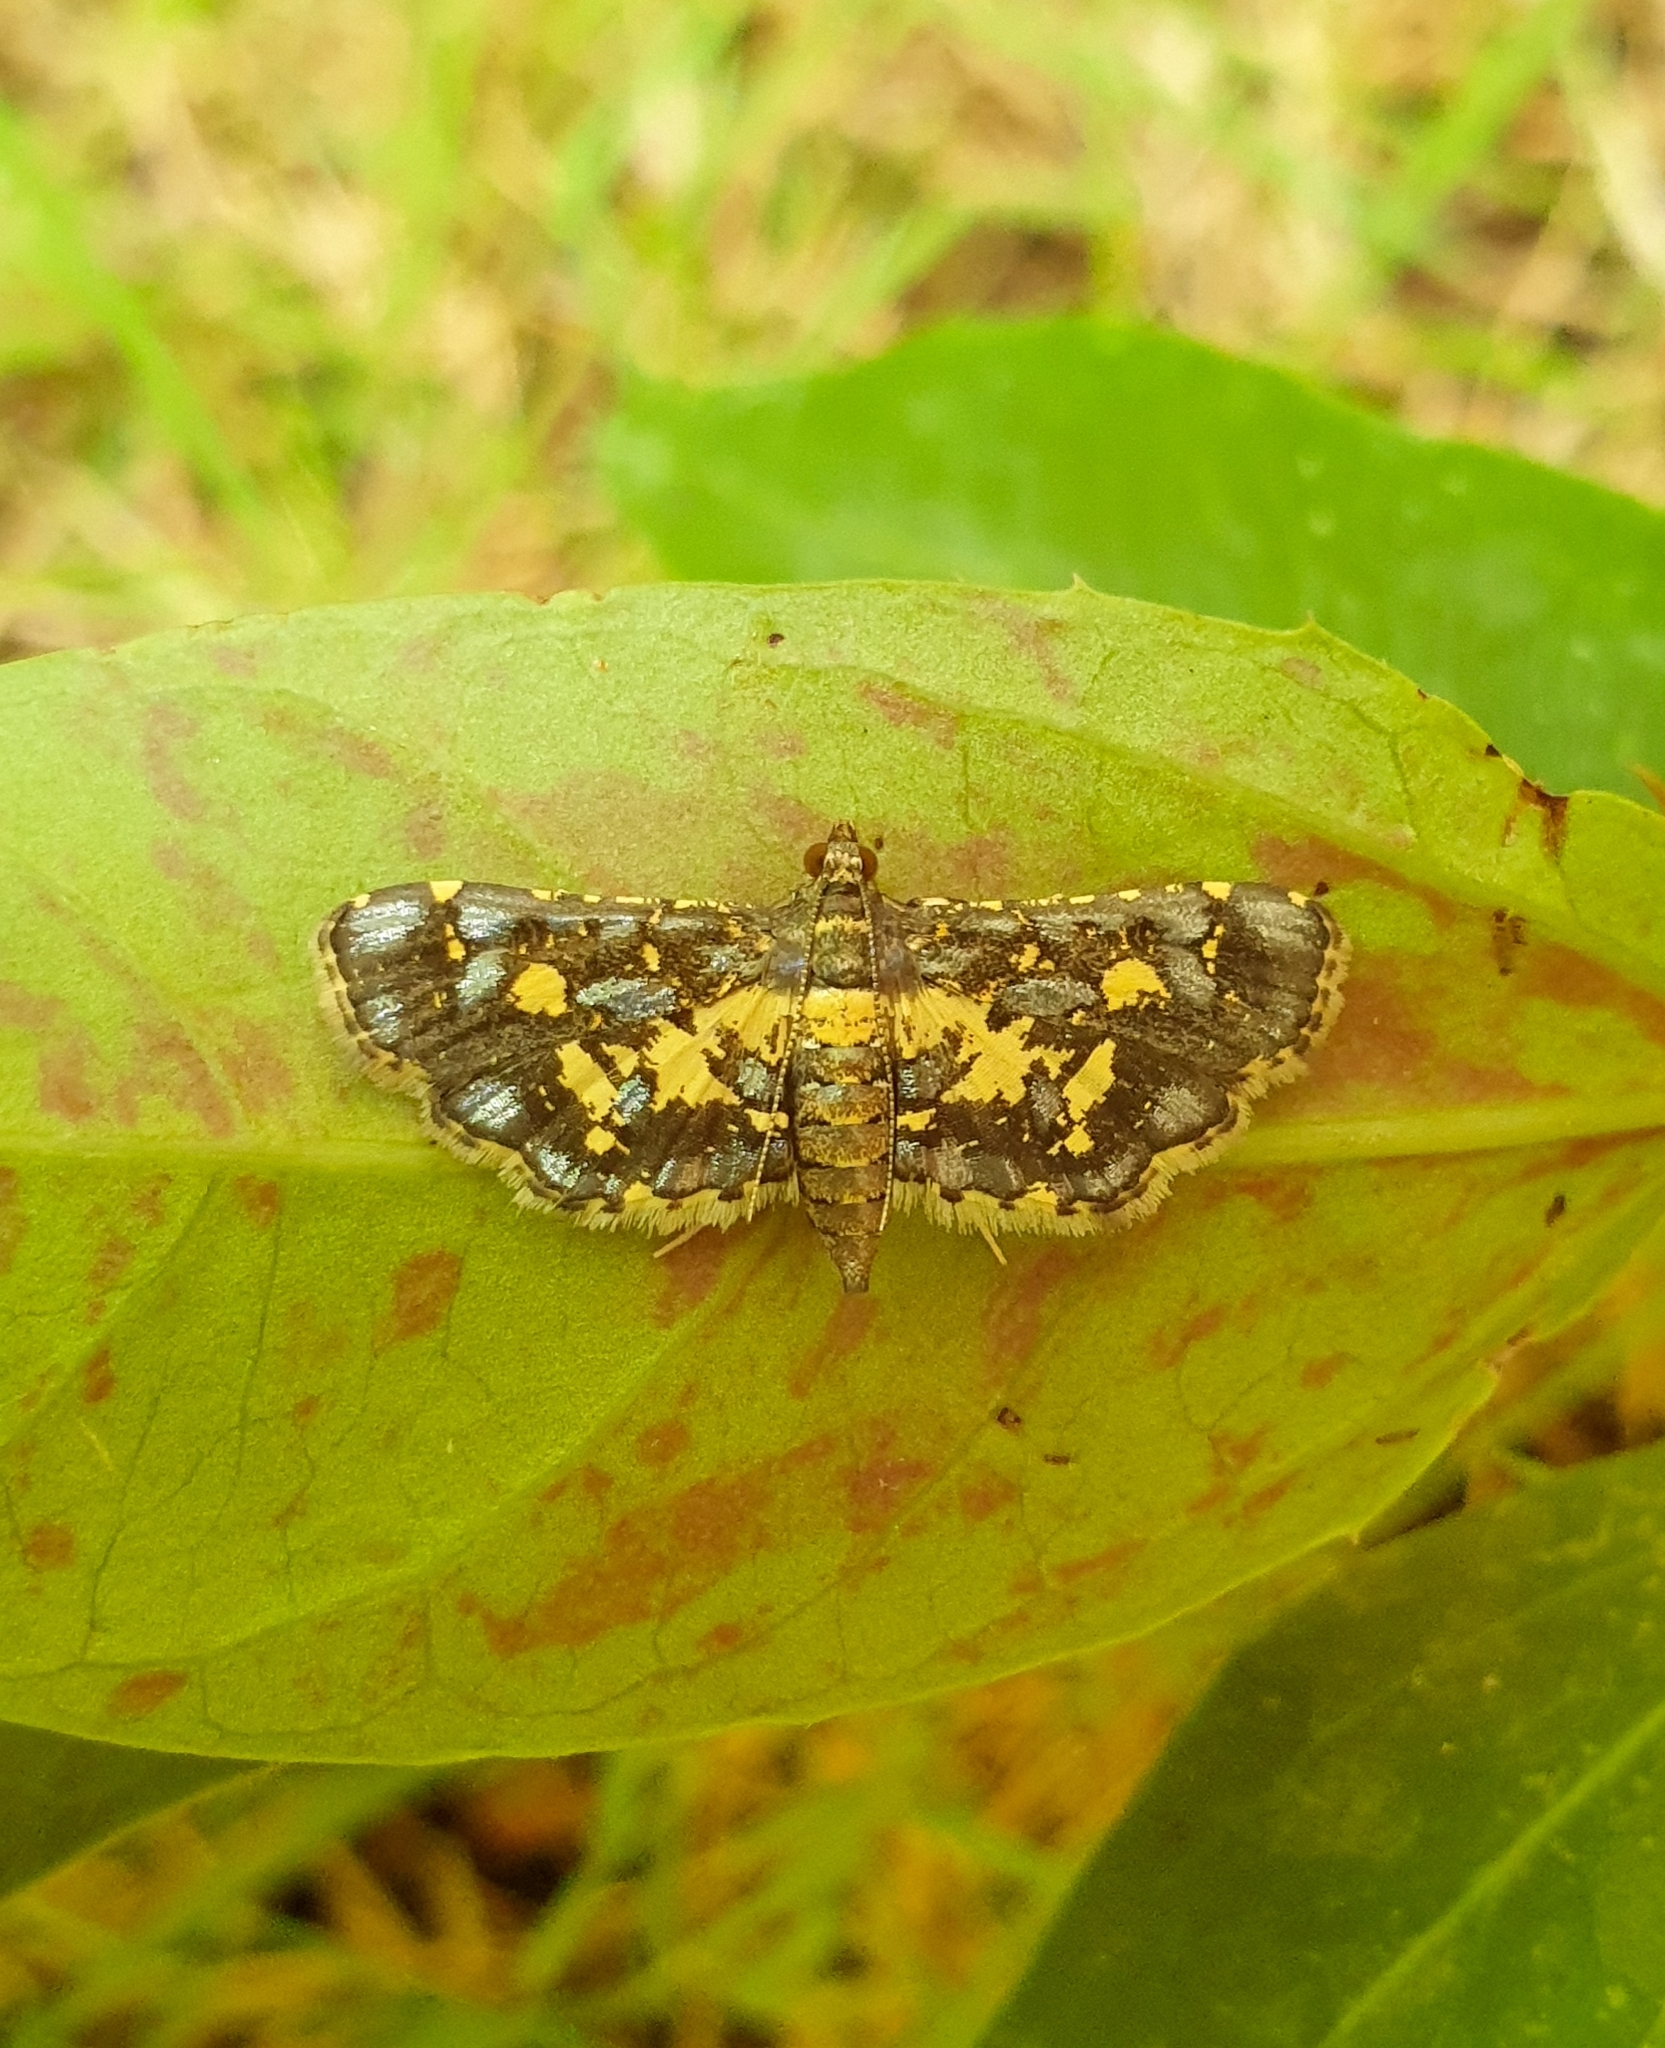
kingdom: Animalia
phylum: Arthropoda
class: Insecta
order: Lepidoptera
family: Crambidae
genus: Eurrhyparodes
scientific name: Eurrhyparodes bracteolalis
